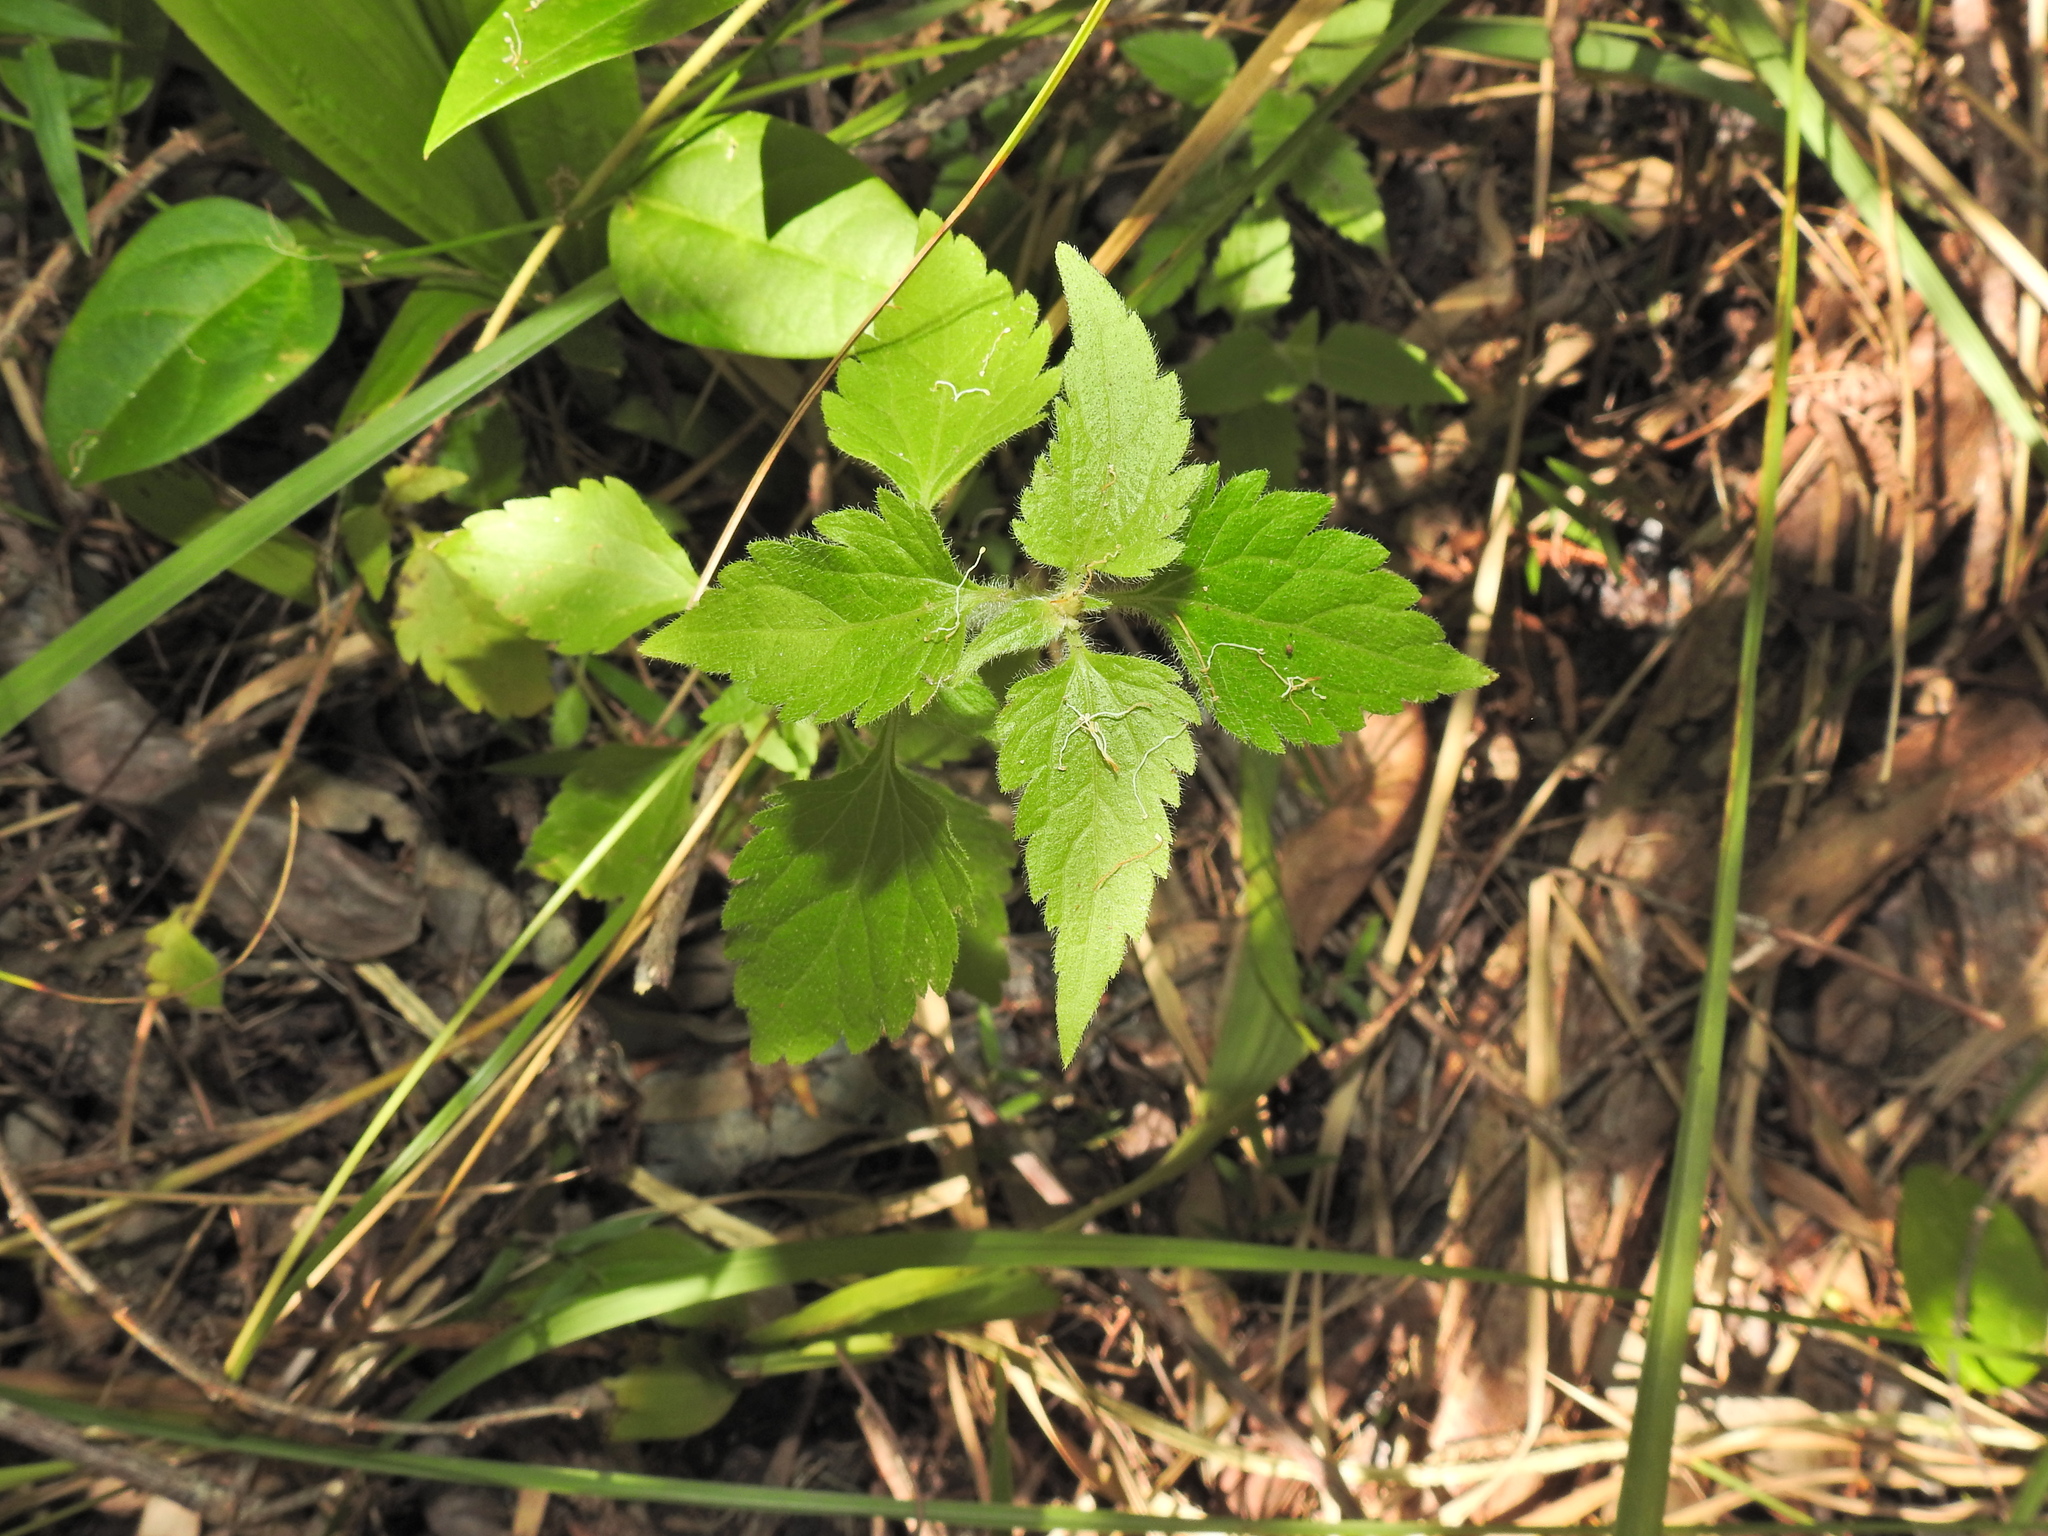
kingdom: Plantae
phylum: Tracheophyta
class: Magnoliopsida
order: Asterales
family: Asteraceae
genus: Praxelis
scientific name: Praxelis clematidea
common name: Praxelis
